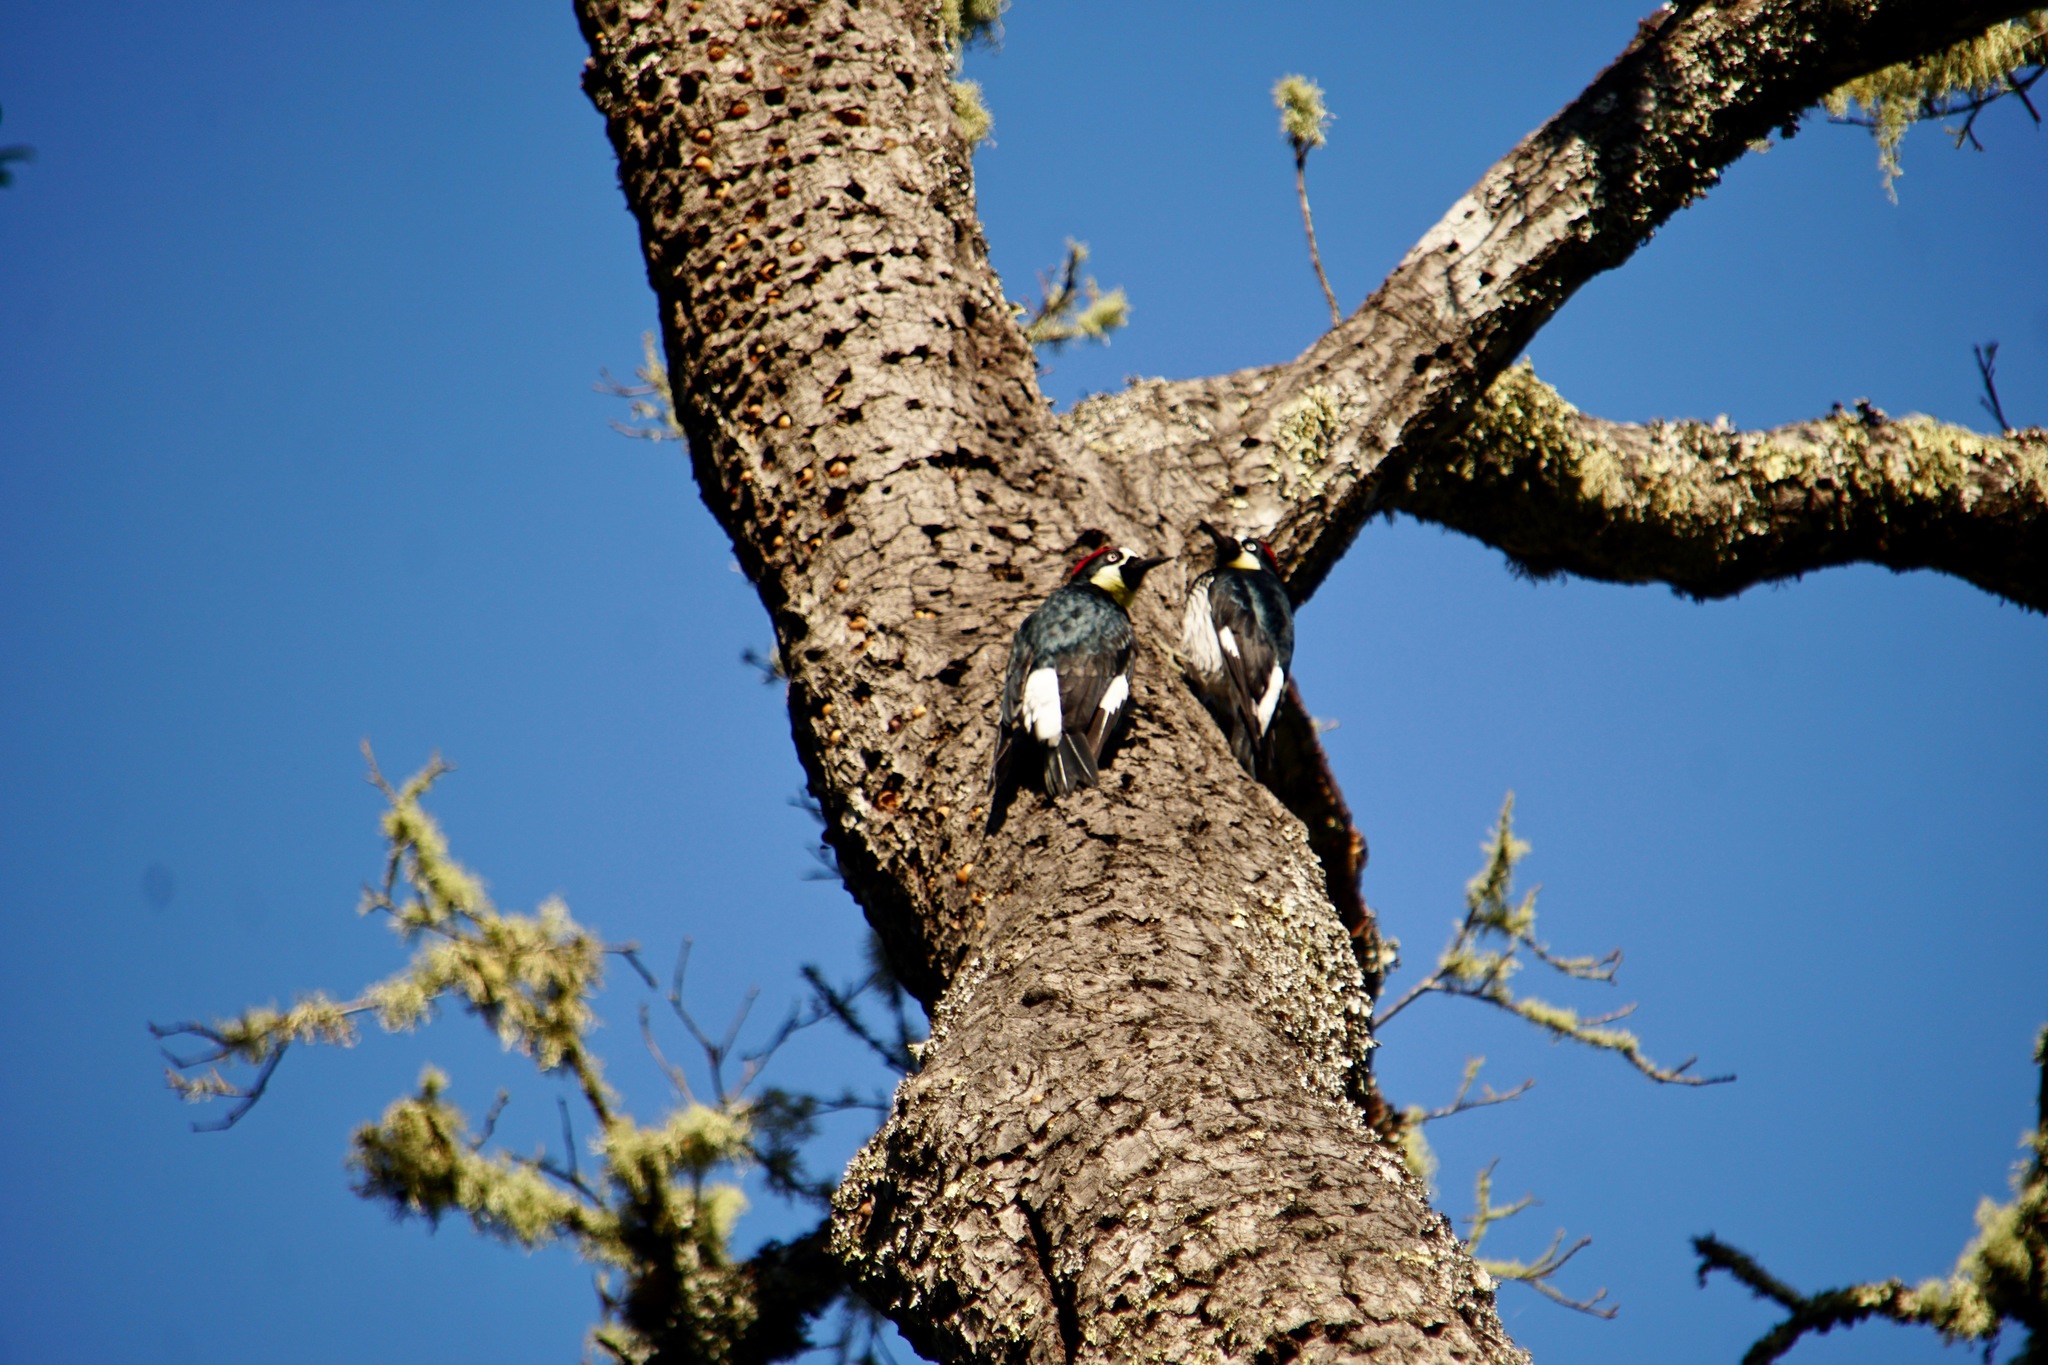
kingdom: Animalia
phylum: Chordata
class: Aves
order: Piciformes
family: Picidae
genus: Melanerpes
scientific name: Melanerpes formicivorus
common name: Acorn woodpecker
